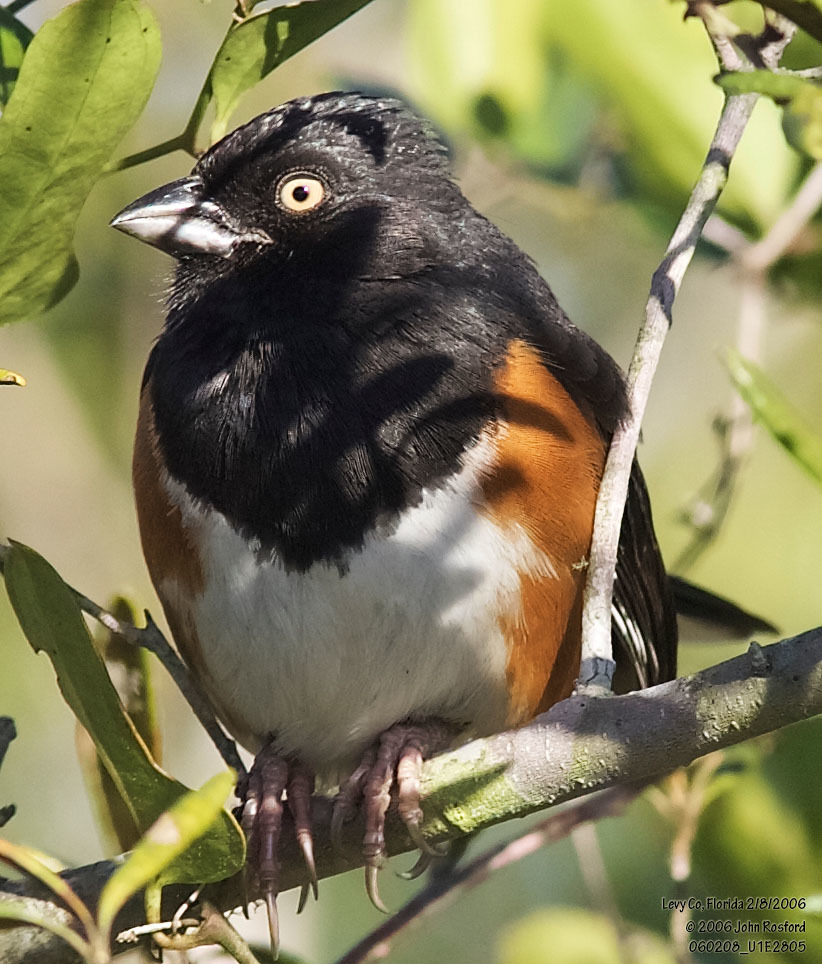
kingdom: Animalia
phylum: Chordata
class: Aves
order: Passeriformes
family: Passerellidae
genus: Pipilo
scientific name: Pipilo erythrophthalmus
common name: Eastern towhee
